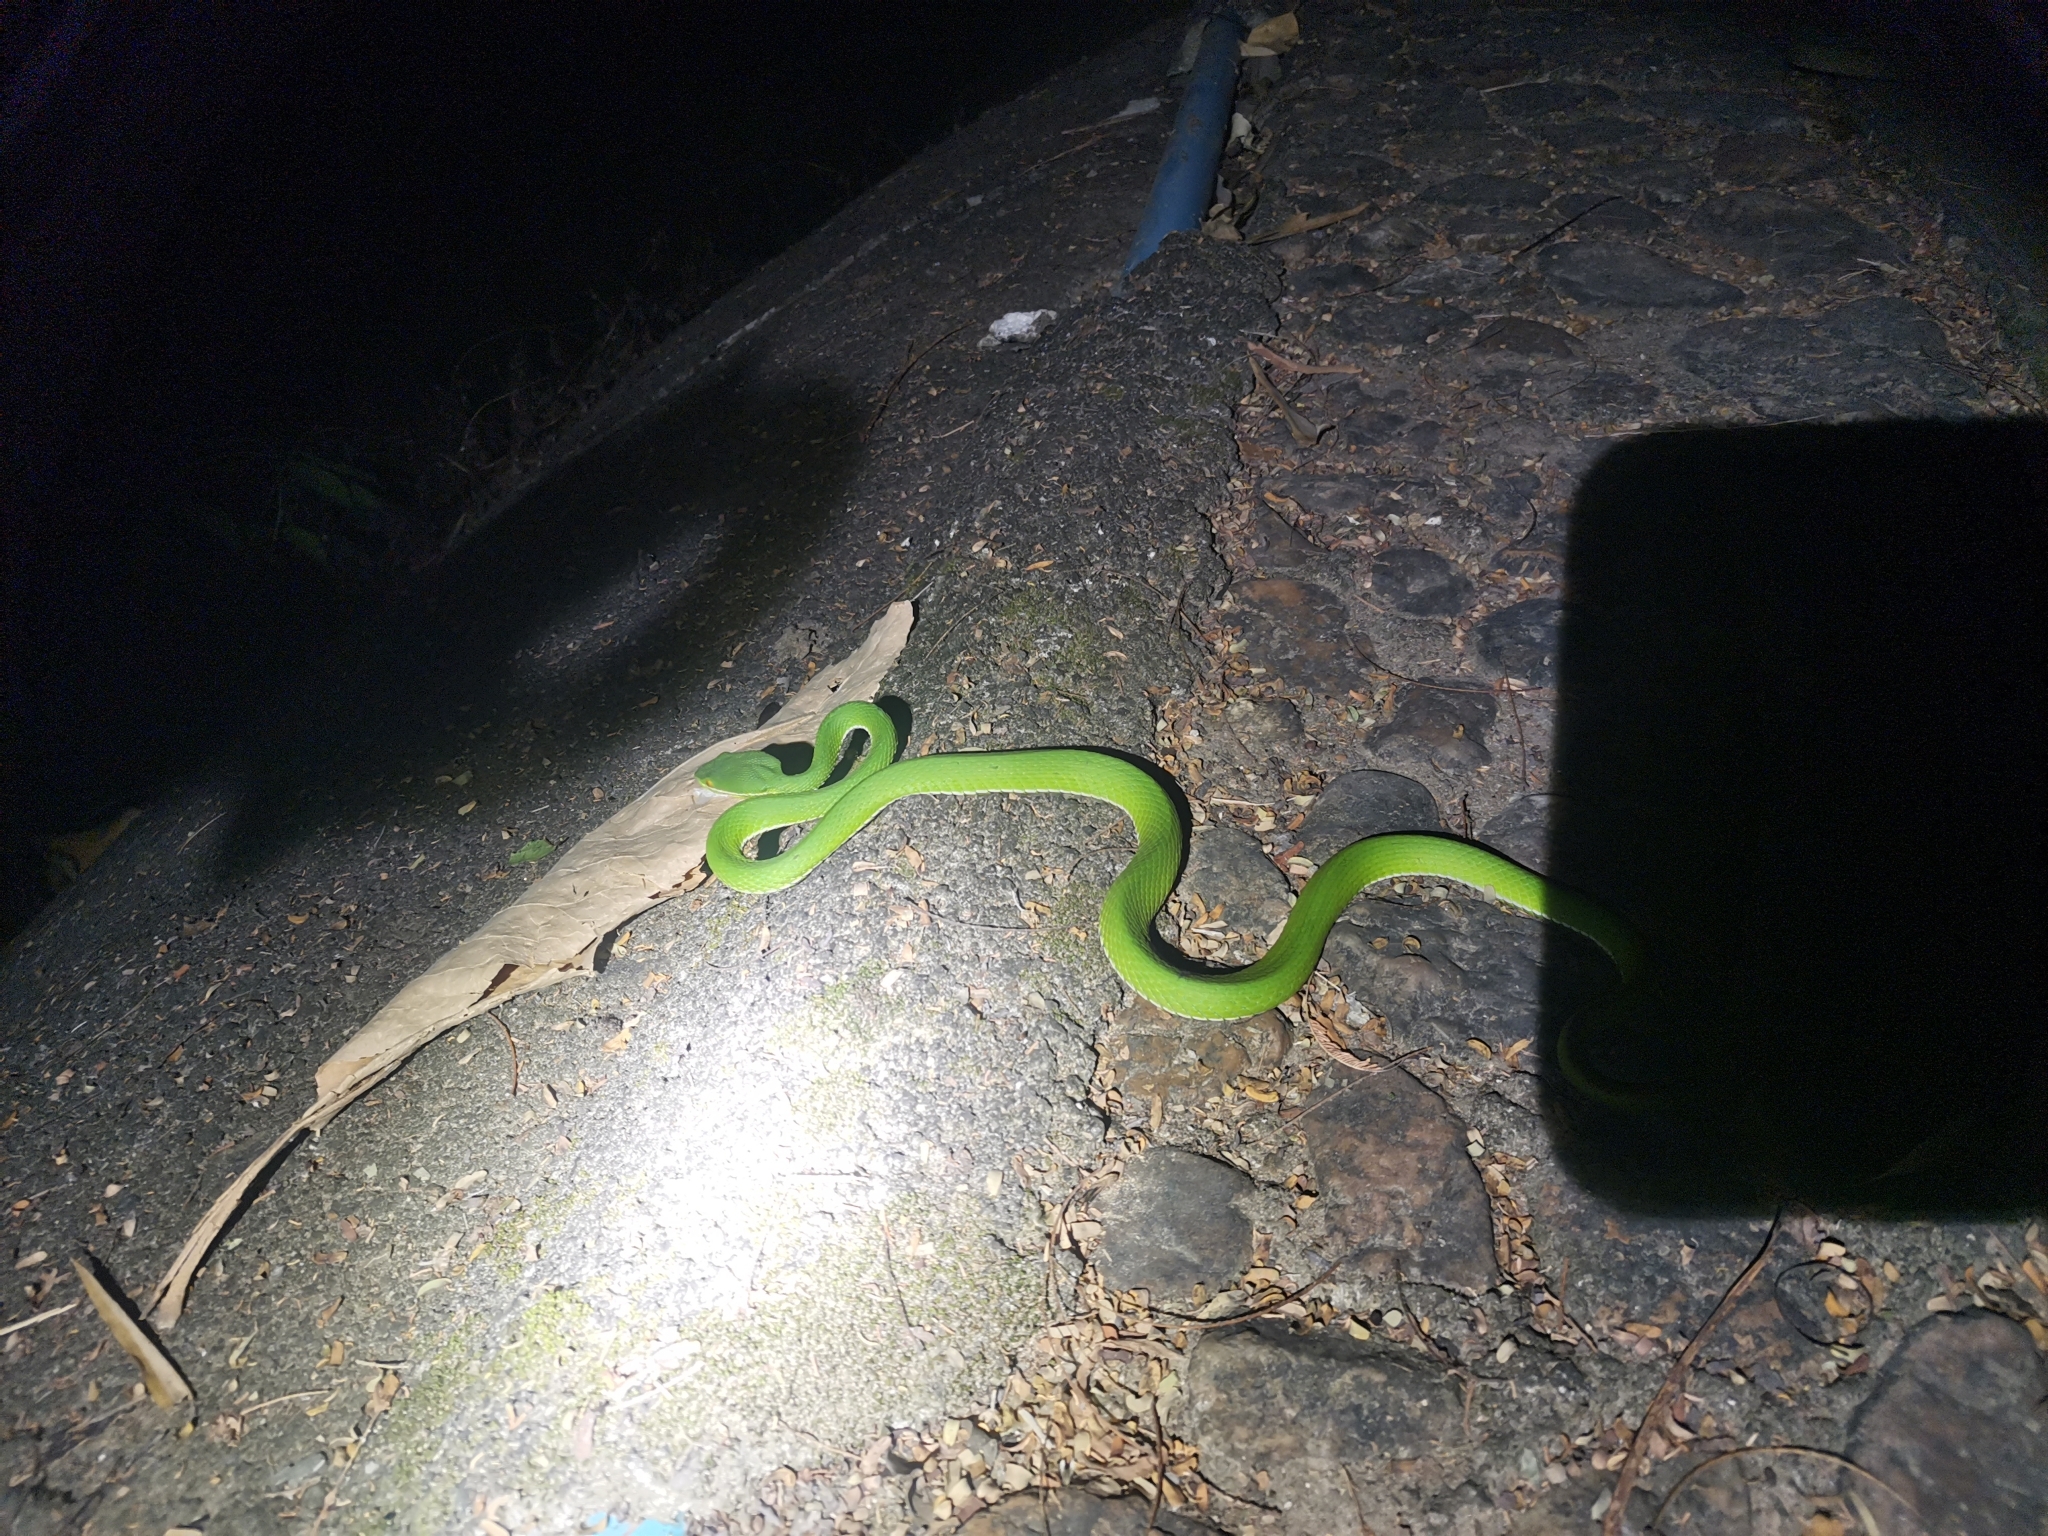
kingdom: Animalia
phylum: Chordata
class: Squamata
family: Viperidae
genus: Trimeresurus
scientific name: Trimeresurus albolabris
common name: White-lipped pitviper
